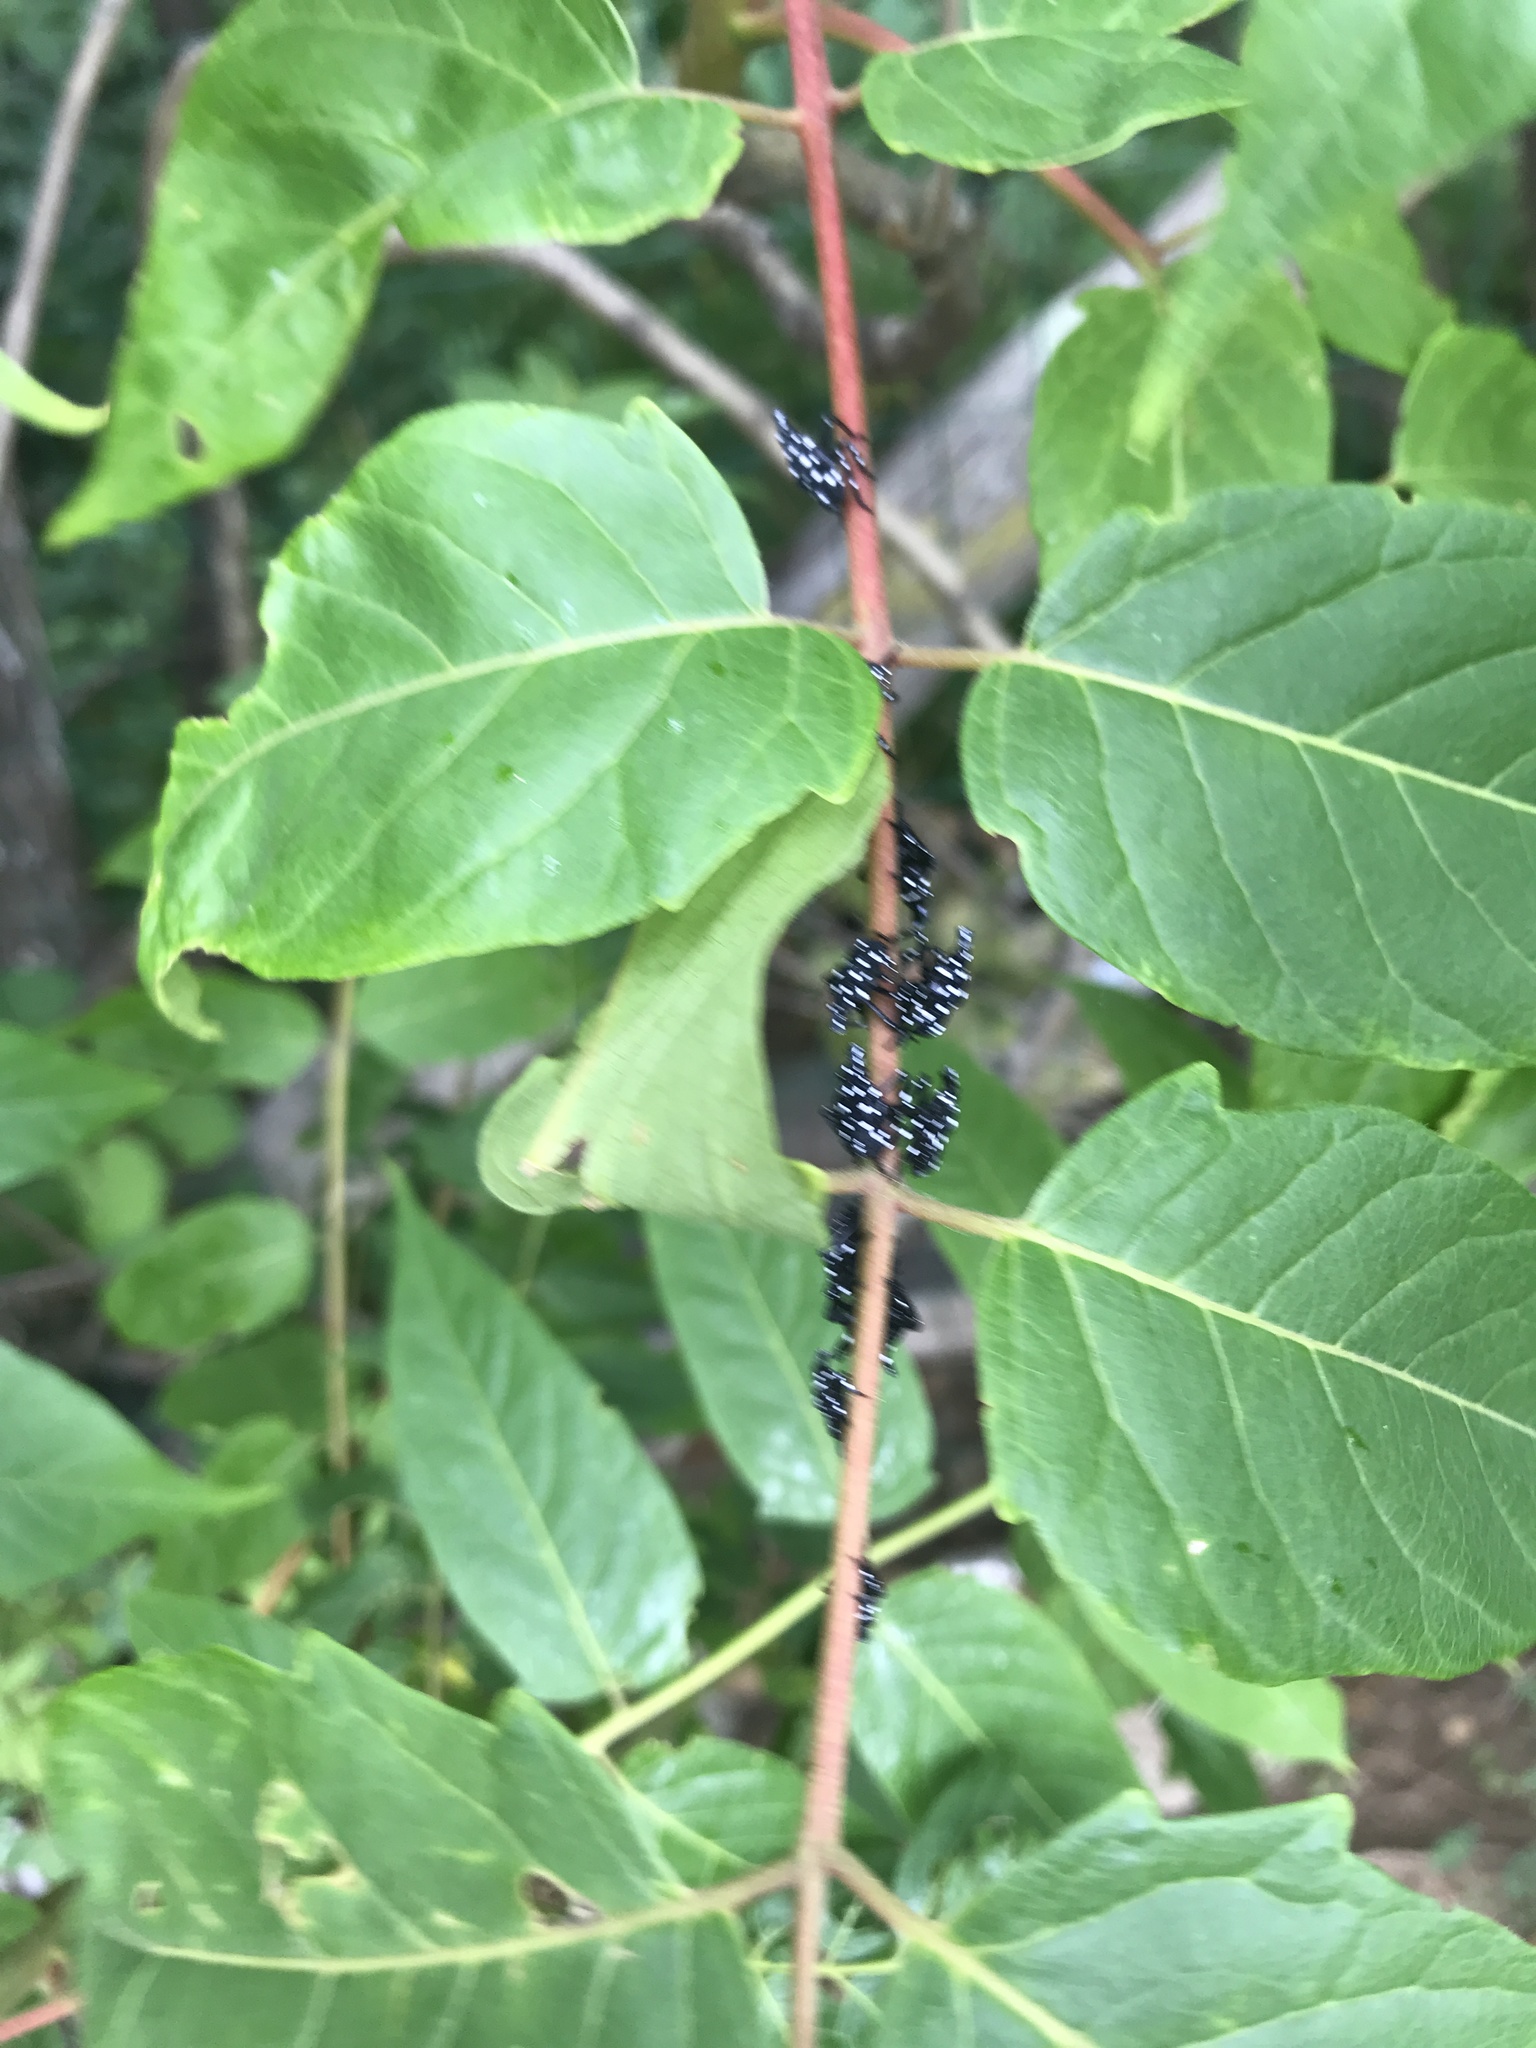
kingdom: Animalia
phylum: Arthropoda
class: Insecta
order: Hemiptera
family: Fulgoridae
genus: Lycorma
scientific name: Lycorma delicatula
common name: Spotted lanternfly
